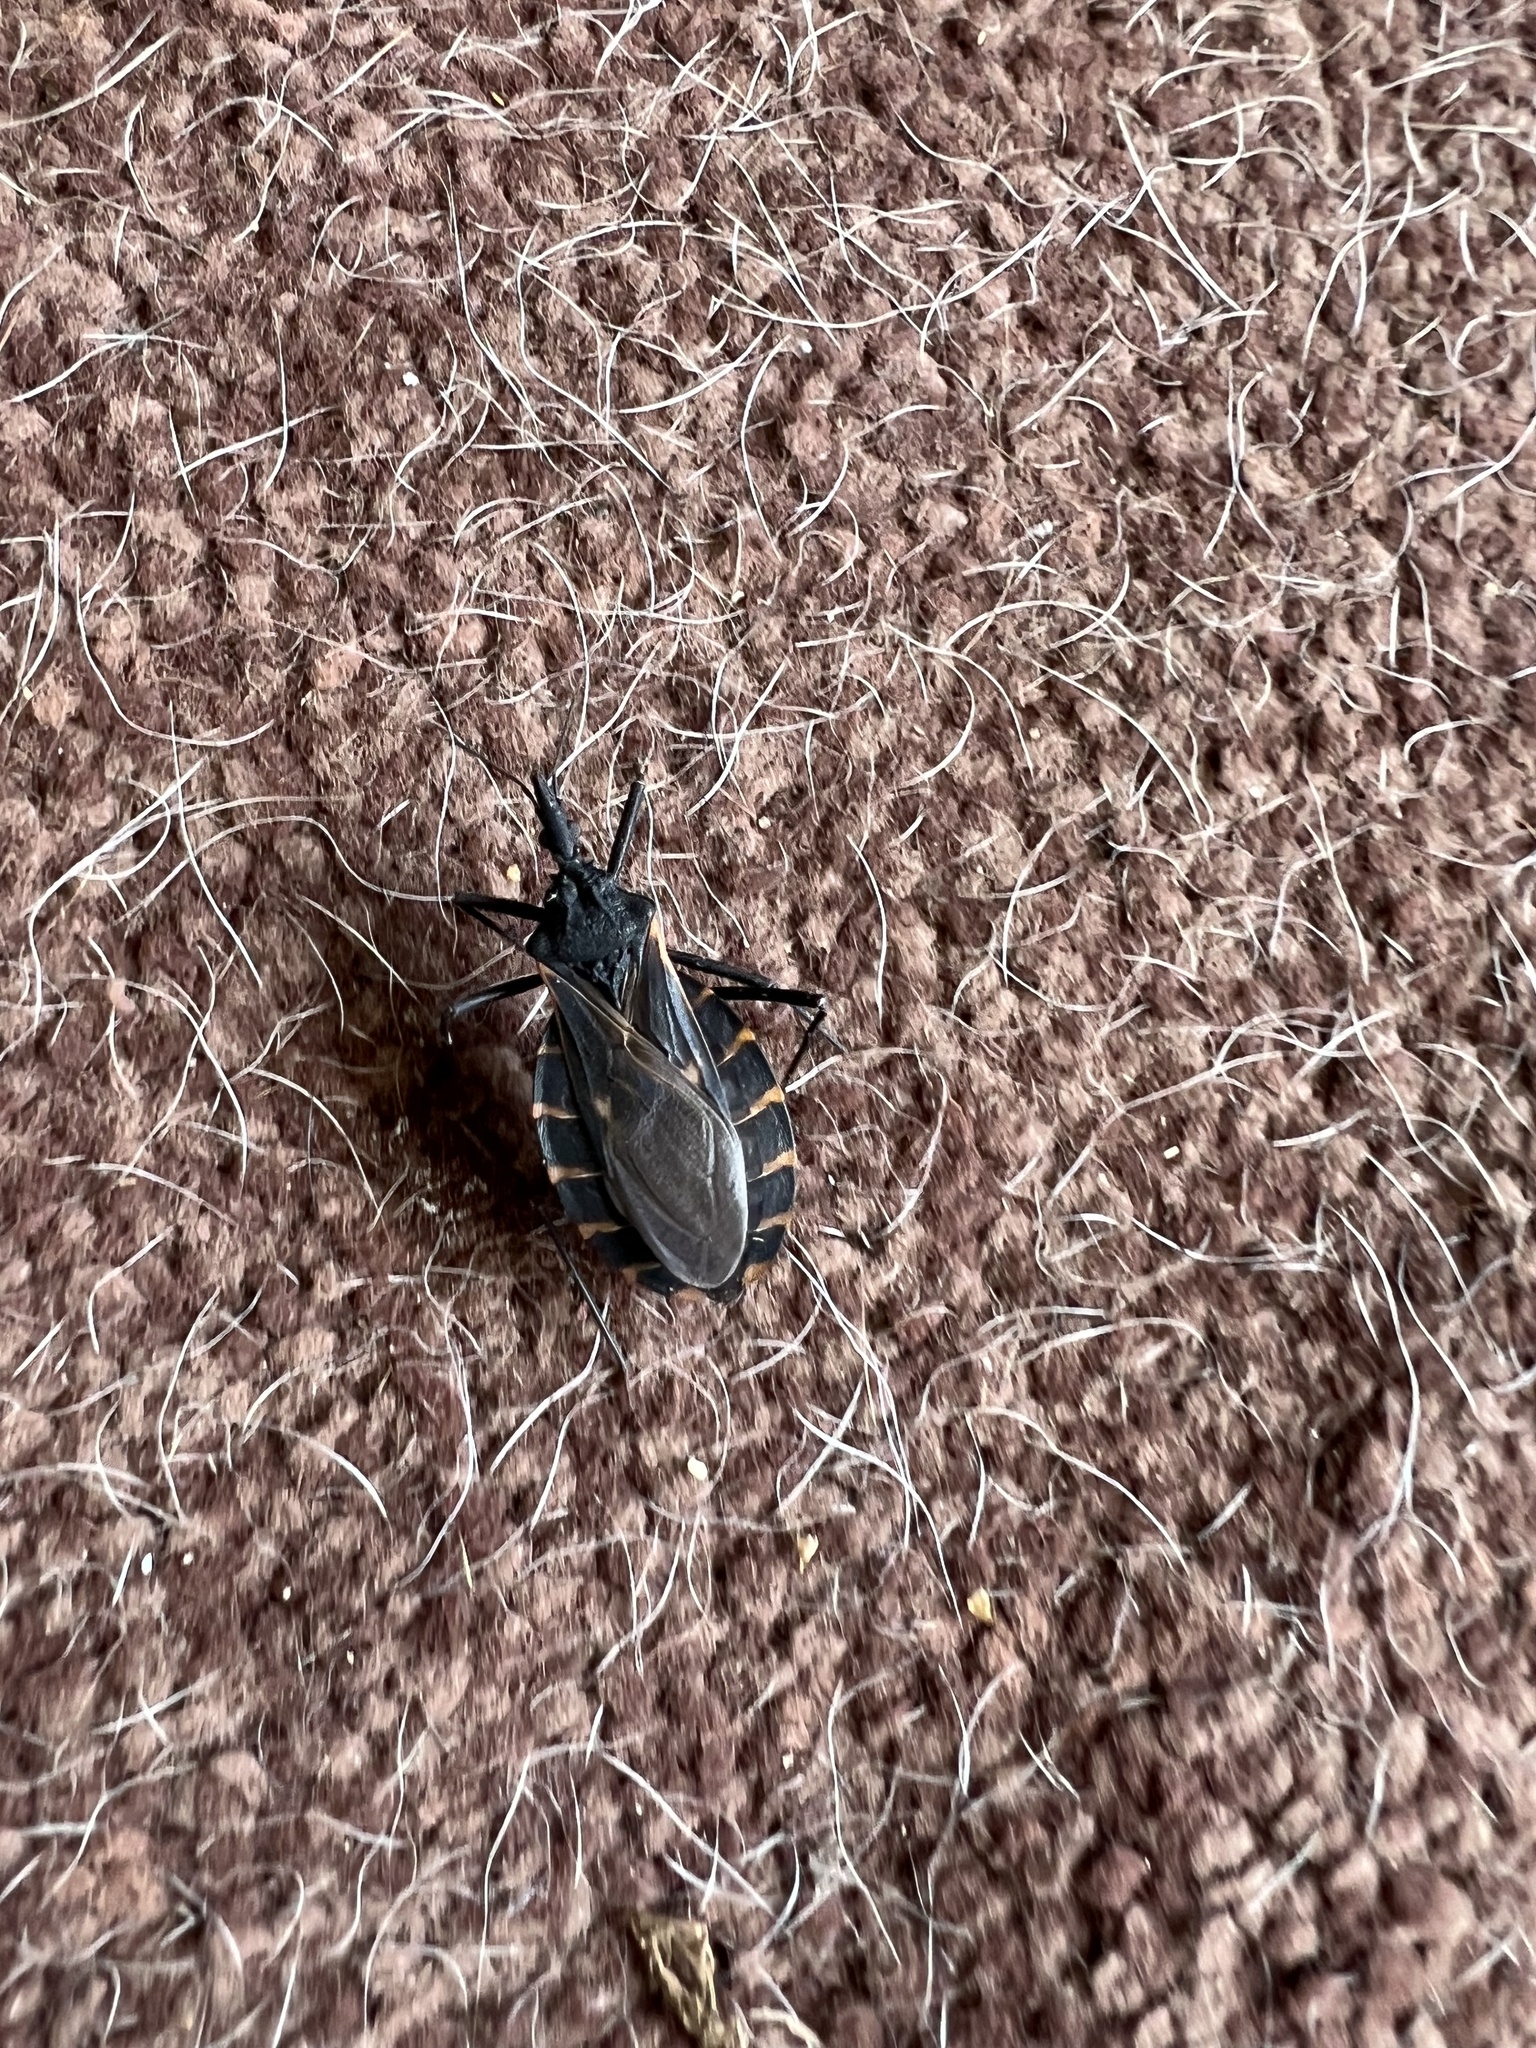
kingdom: Animalia
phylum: Arthropoda
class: Insecta
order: Hemiptera
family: Reduviidae
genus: Triatoma
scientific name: Triatoma gerstaeckeri
